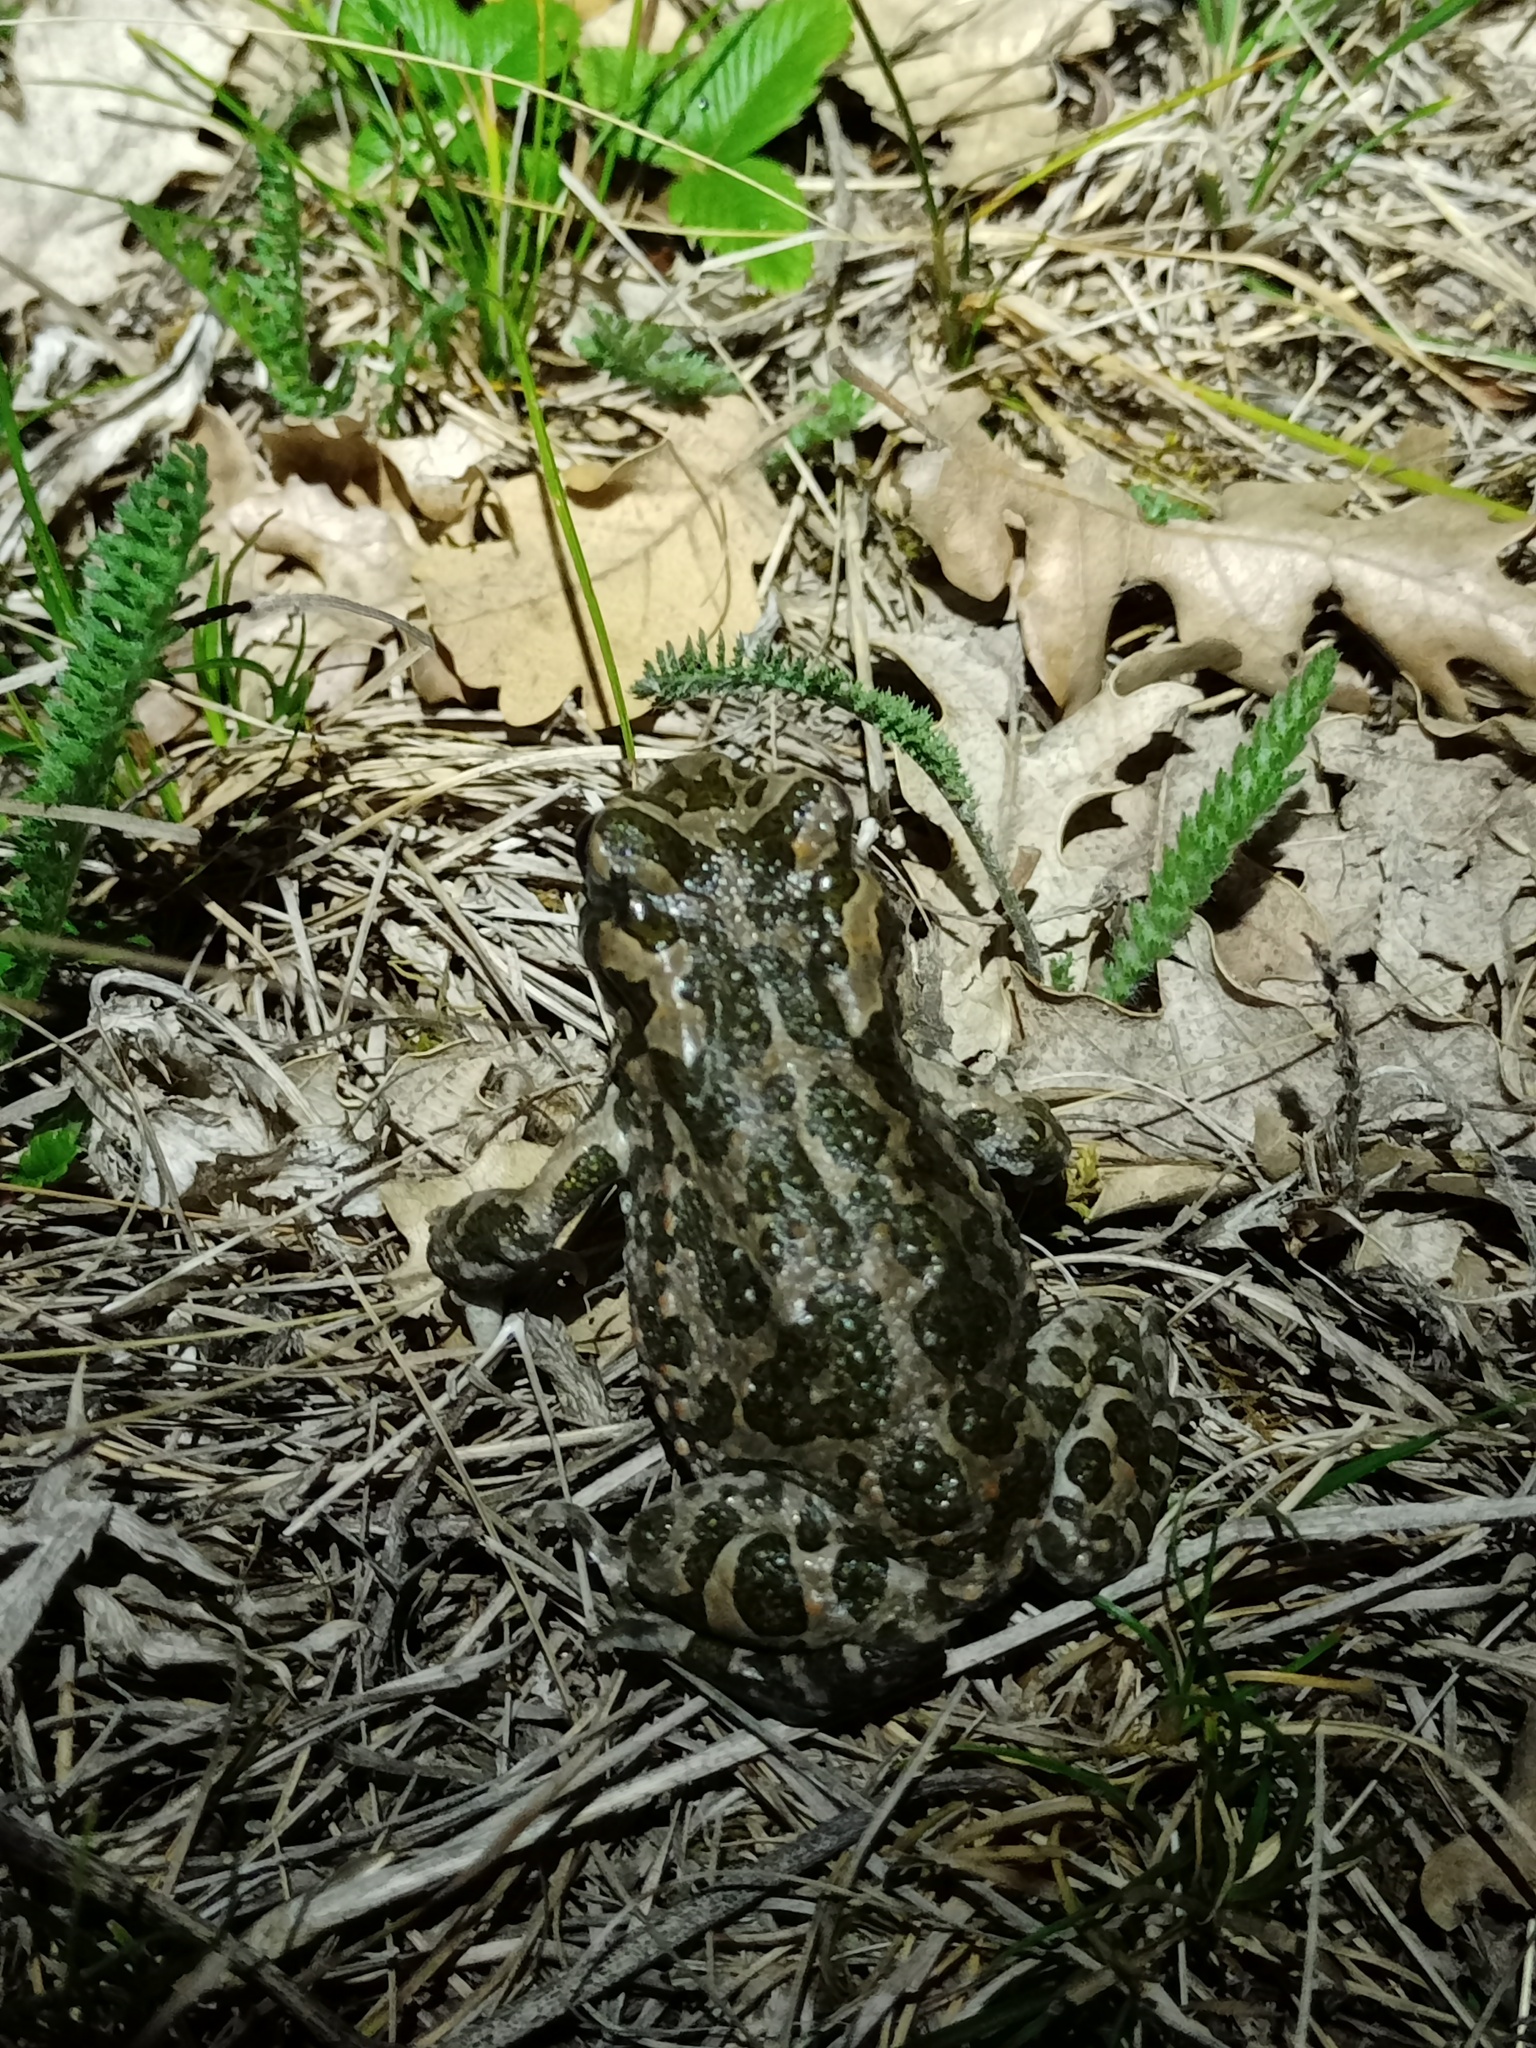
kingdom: Animalia
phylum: Chordata
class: Amphibia
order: Anura
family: Bufonidae
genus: Bufotes
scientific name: Bufotes viridis
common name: European green toad
